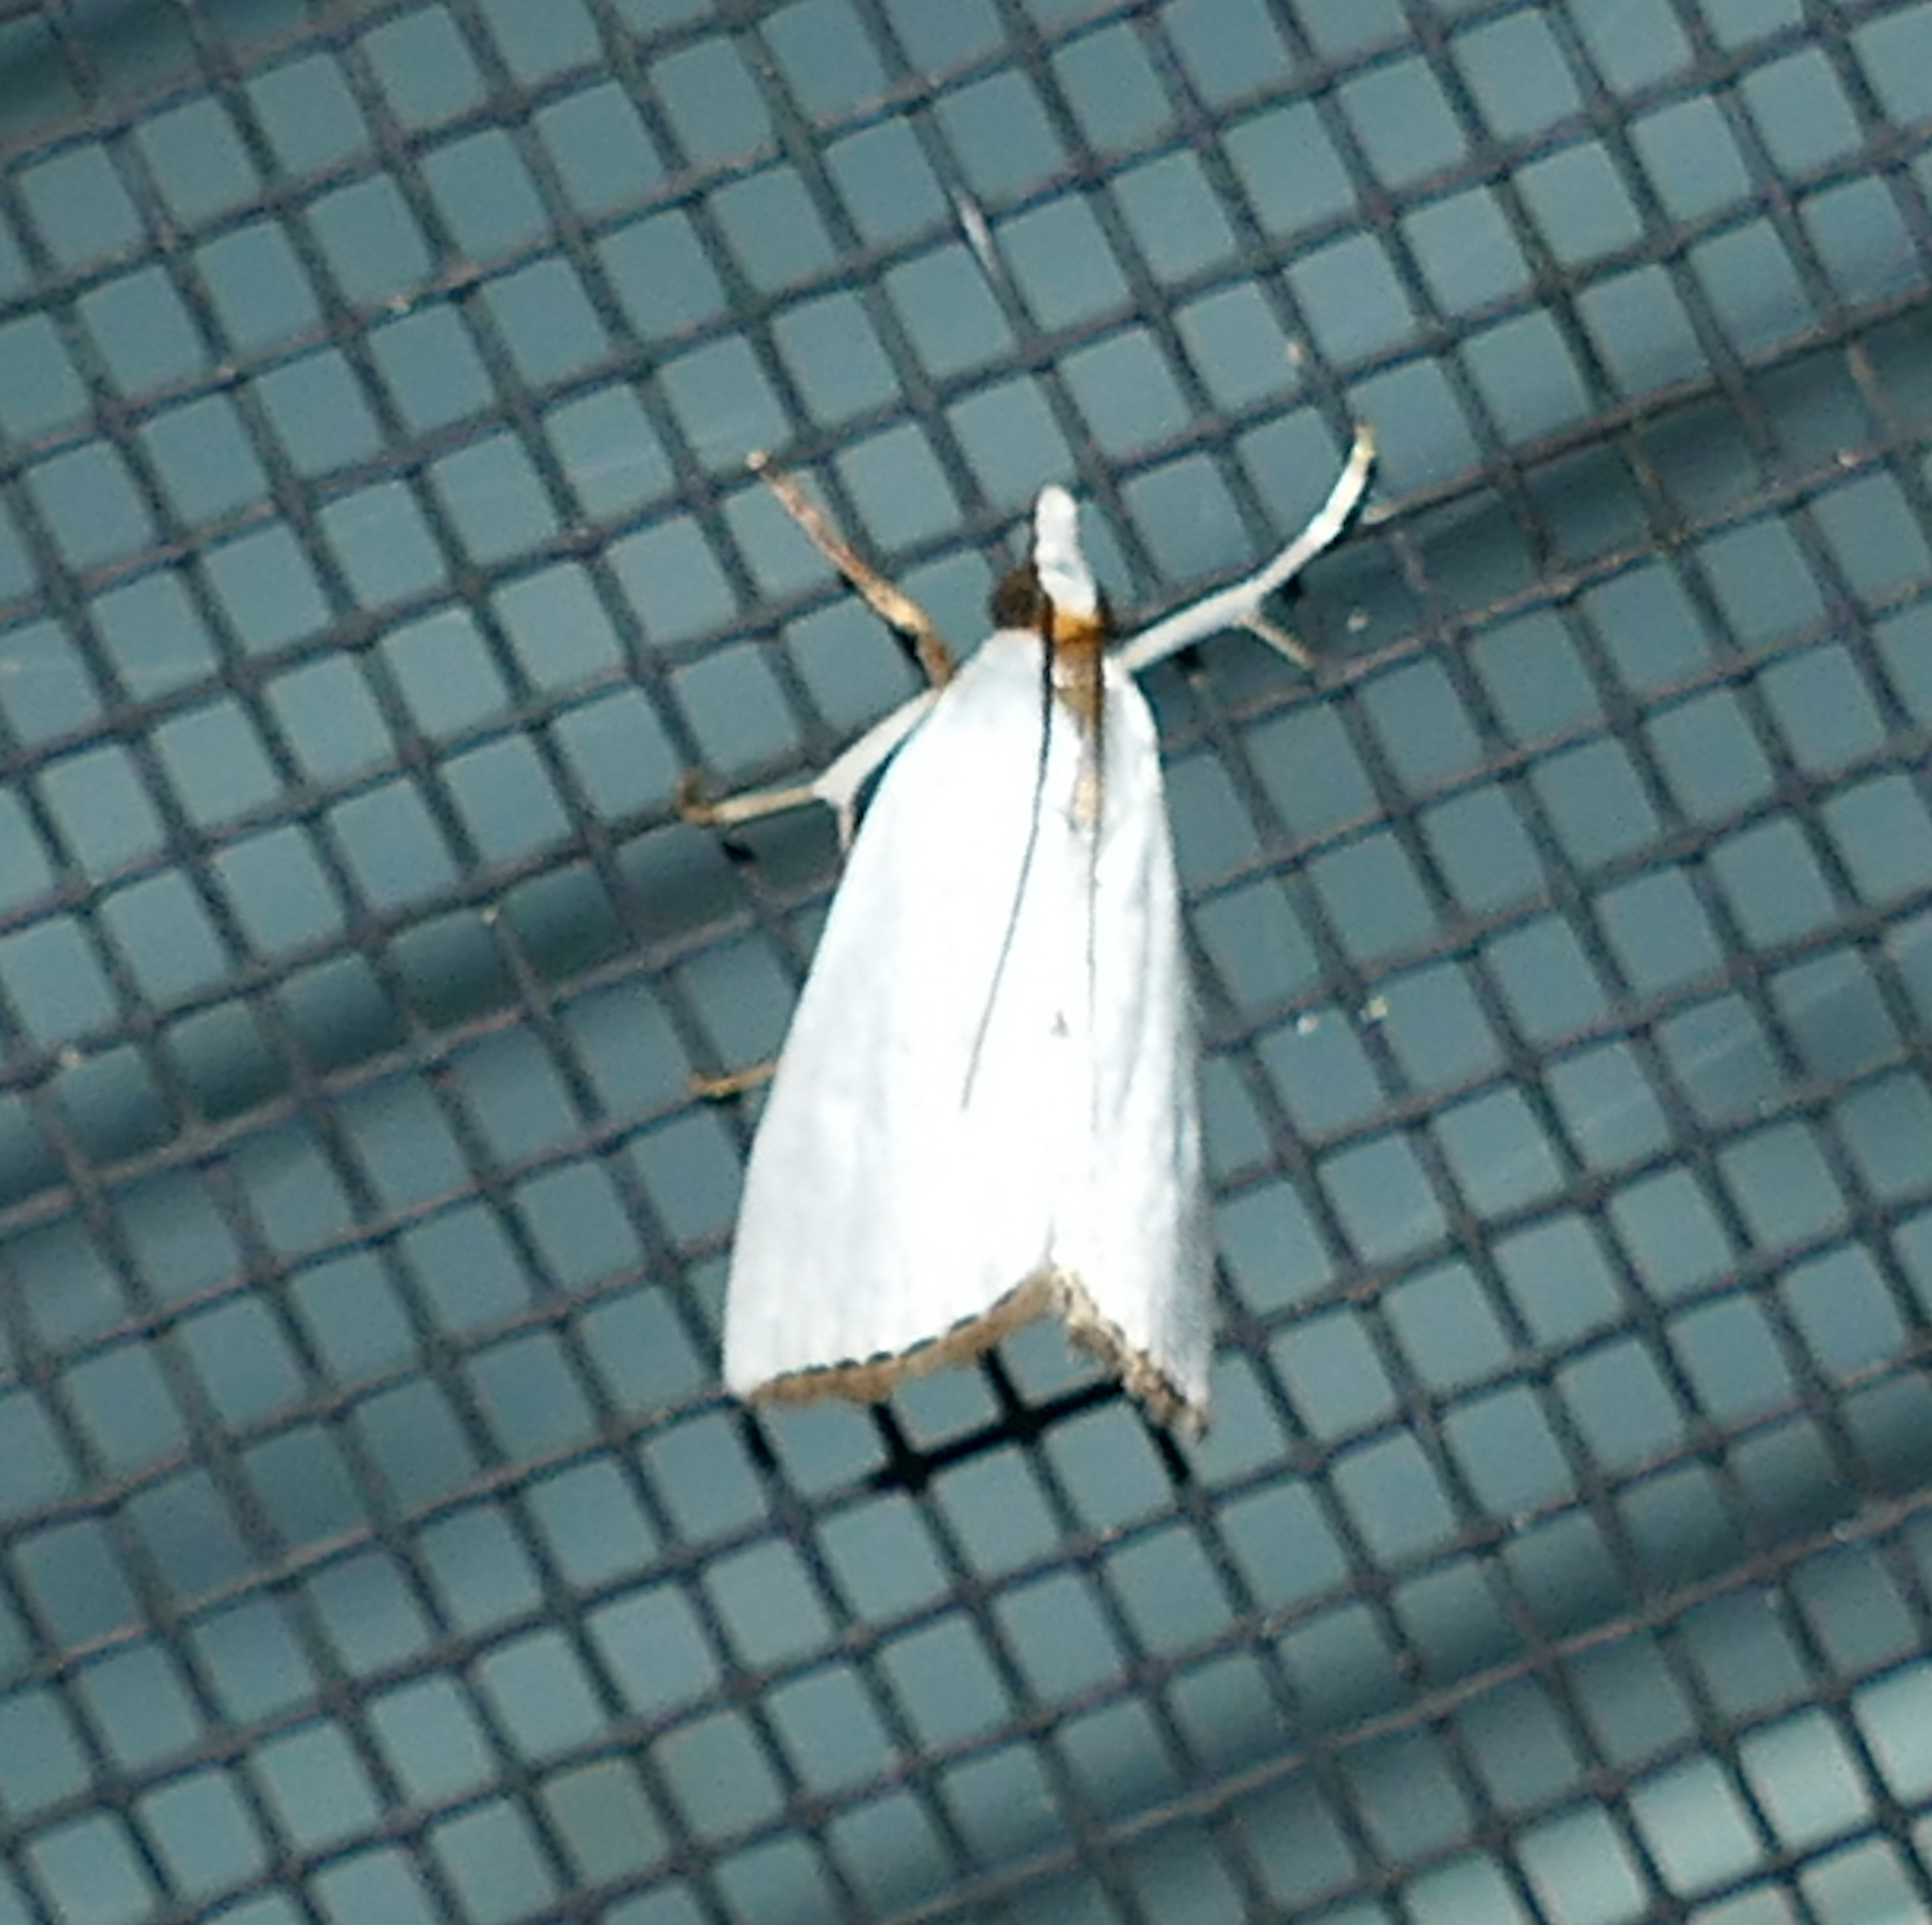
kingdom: Animalia
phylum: Arthropoda
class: Insecta
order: Lepidoptera
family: Crambidae
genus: Argyria
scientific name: Argyria nivalis
